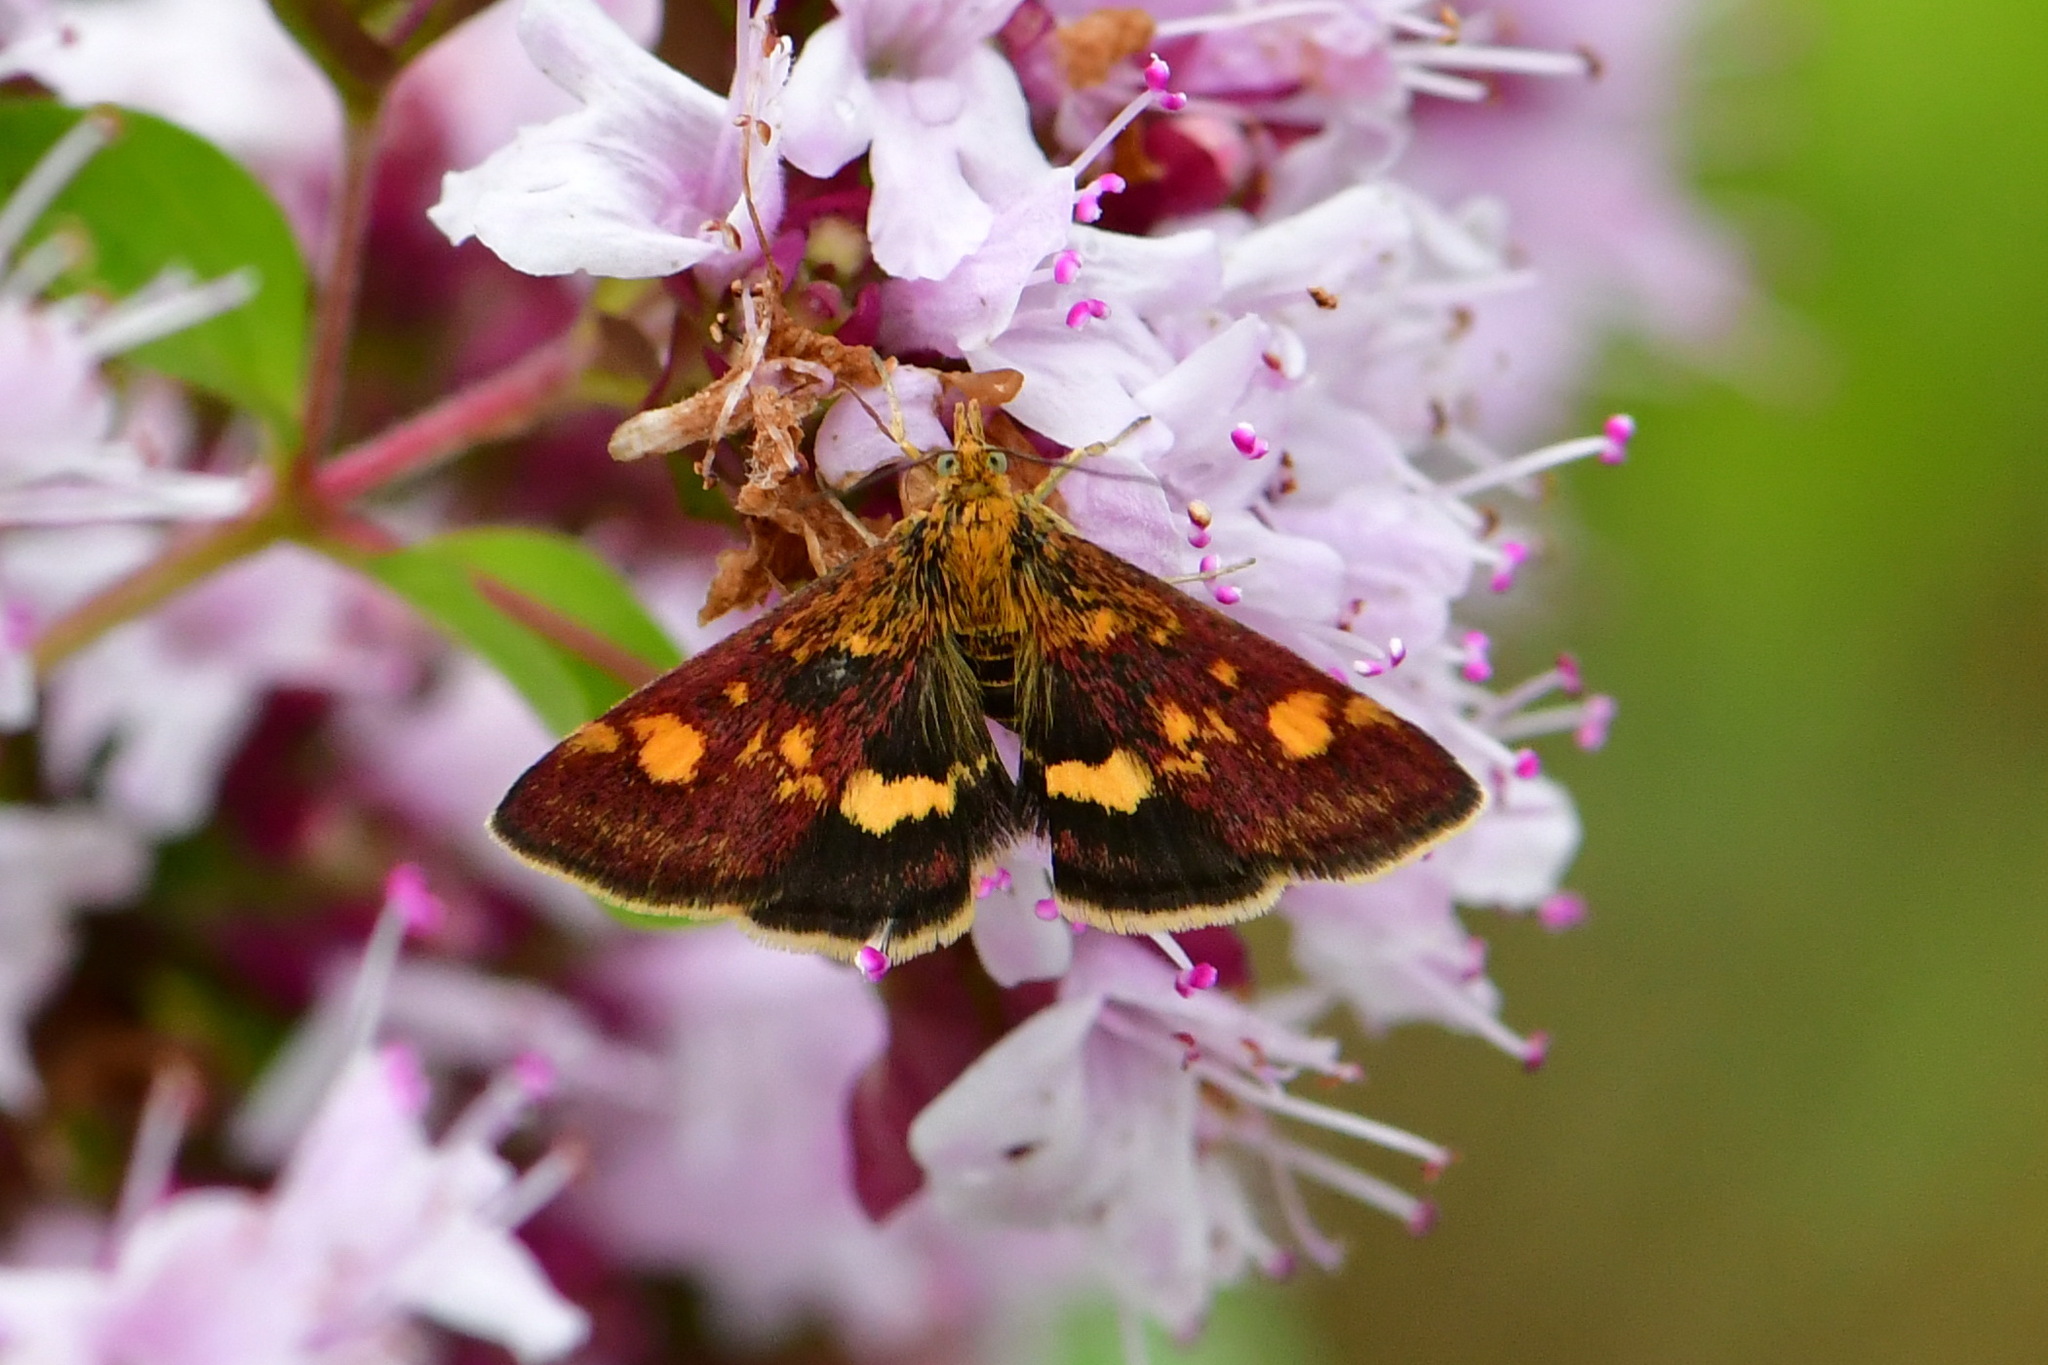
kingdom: Animalia
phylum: Arthropoda
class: Insecta
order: Lepidoptera
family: Crambidae
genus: Pyrausta
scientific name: Pyrausta aurata
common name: Small purple & gold
